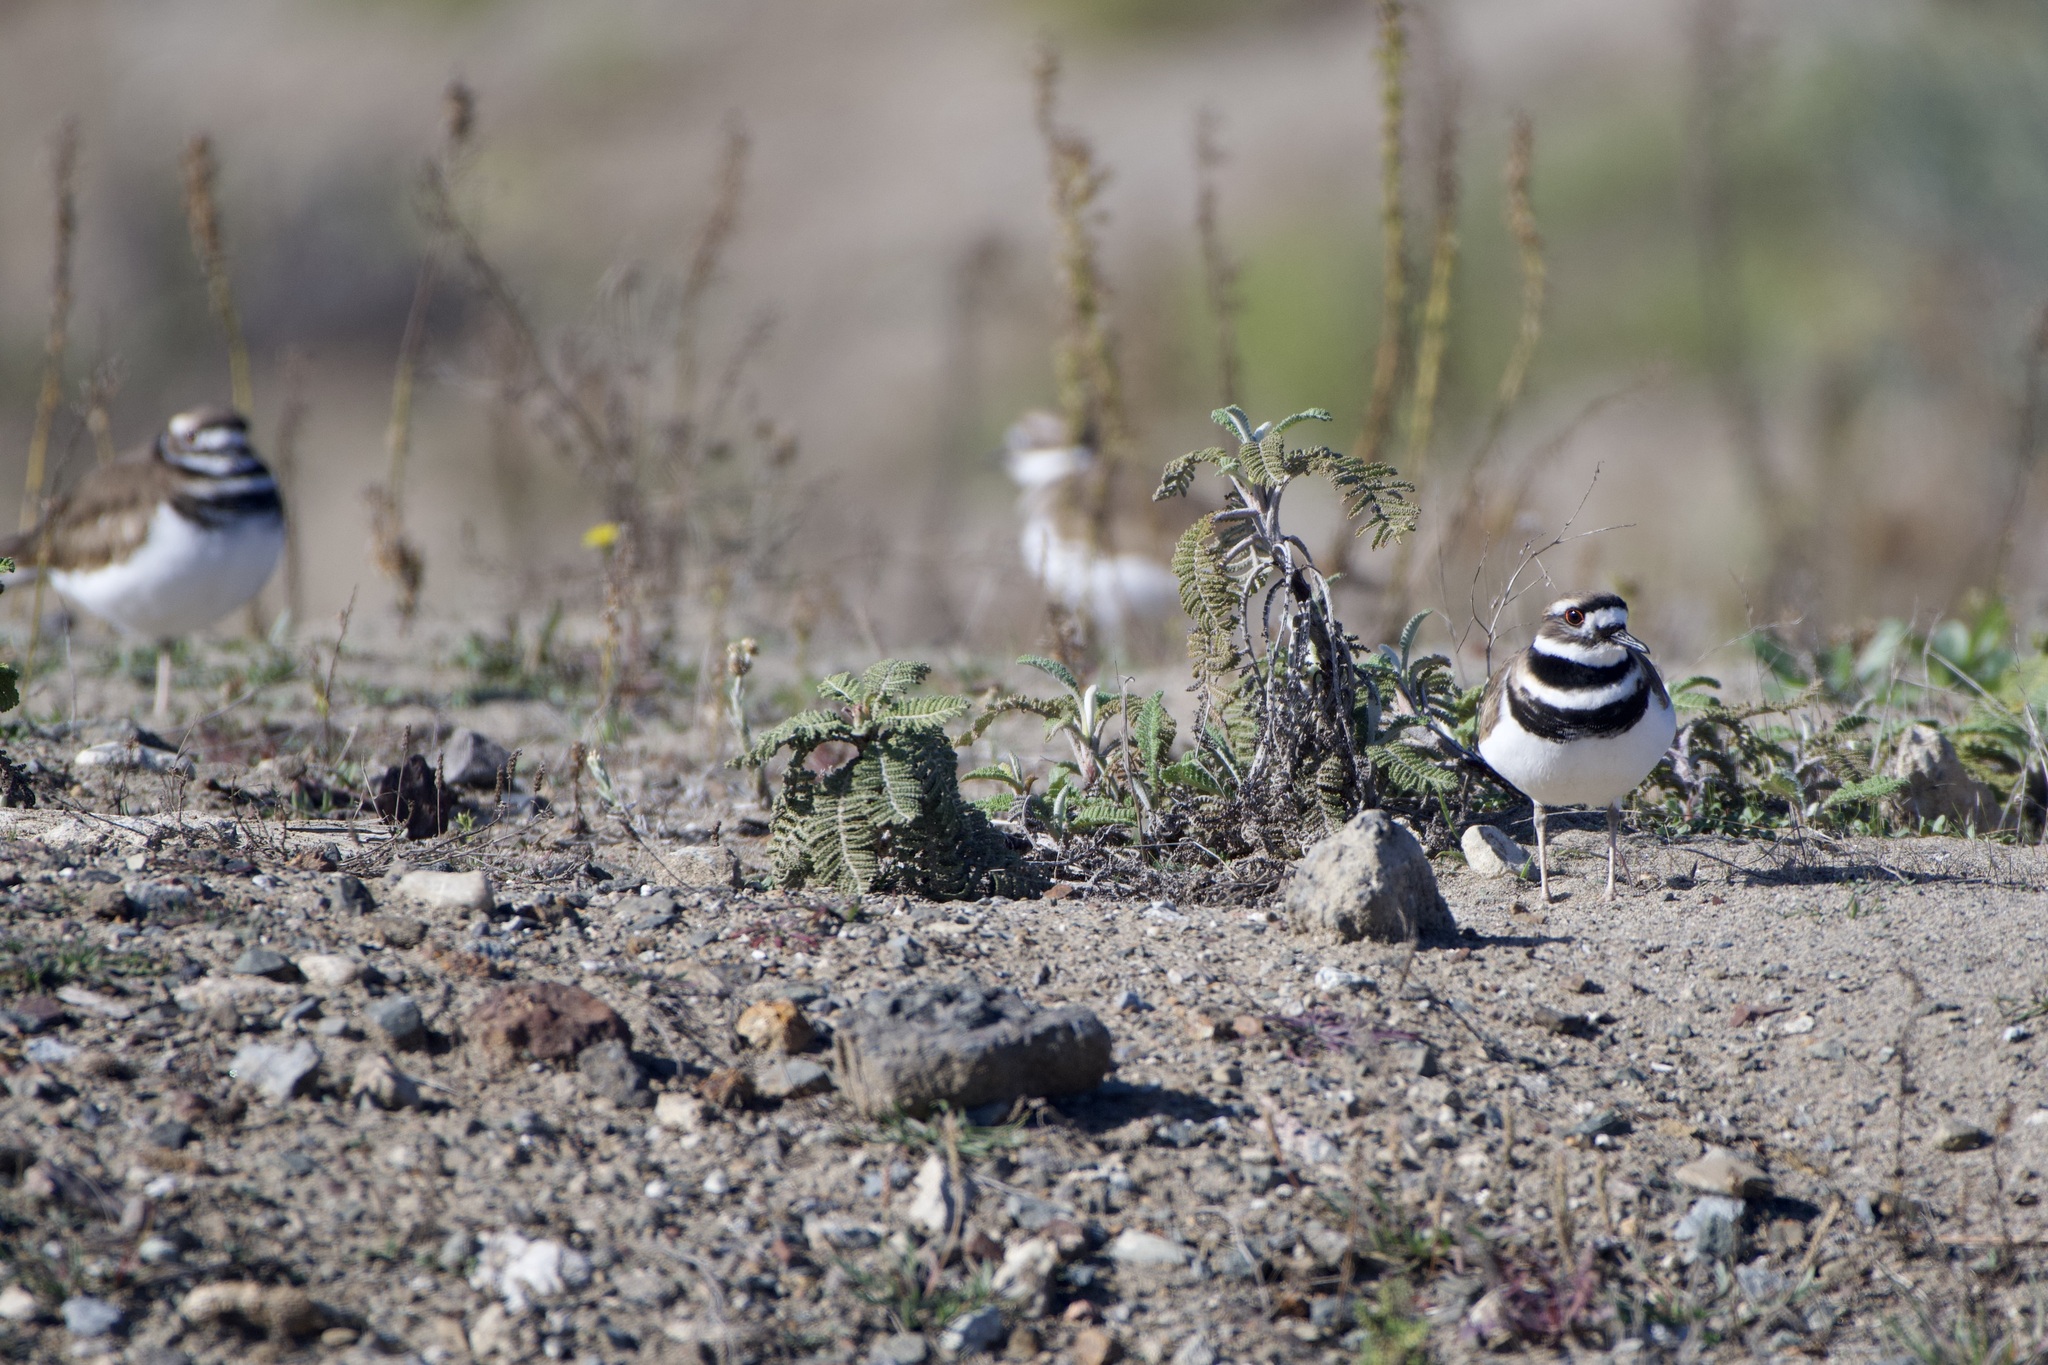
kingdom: Animalia
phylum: Chordata
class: Aves
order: Charadriiformes
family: Charadriidae
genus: Charadrius
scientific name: Charadrius vociferus
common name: Killdeer
